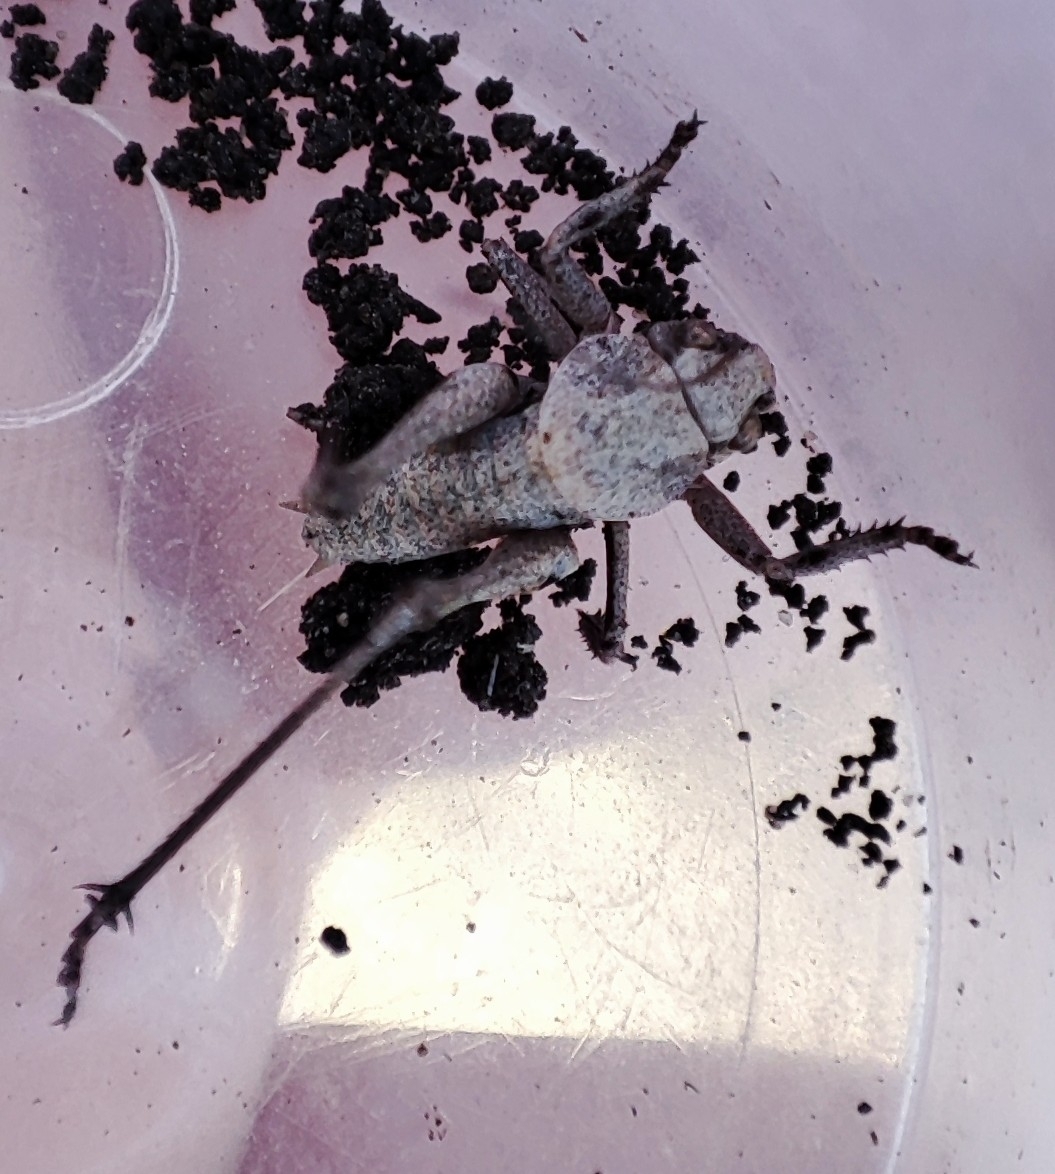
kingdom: Animalia
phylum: Arthropoda
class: Insecta
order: Orthoptera
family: Tettigoniidae
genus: Decticus
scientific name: Decticus verrucivorus
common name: Wart-biter
